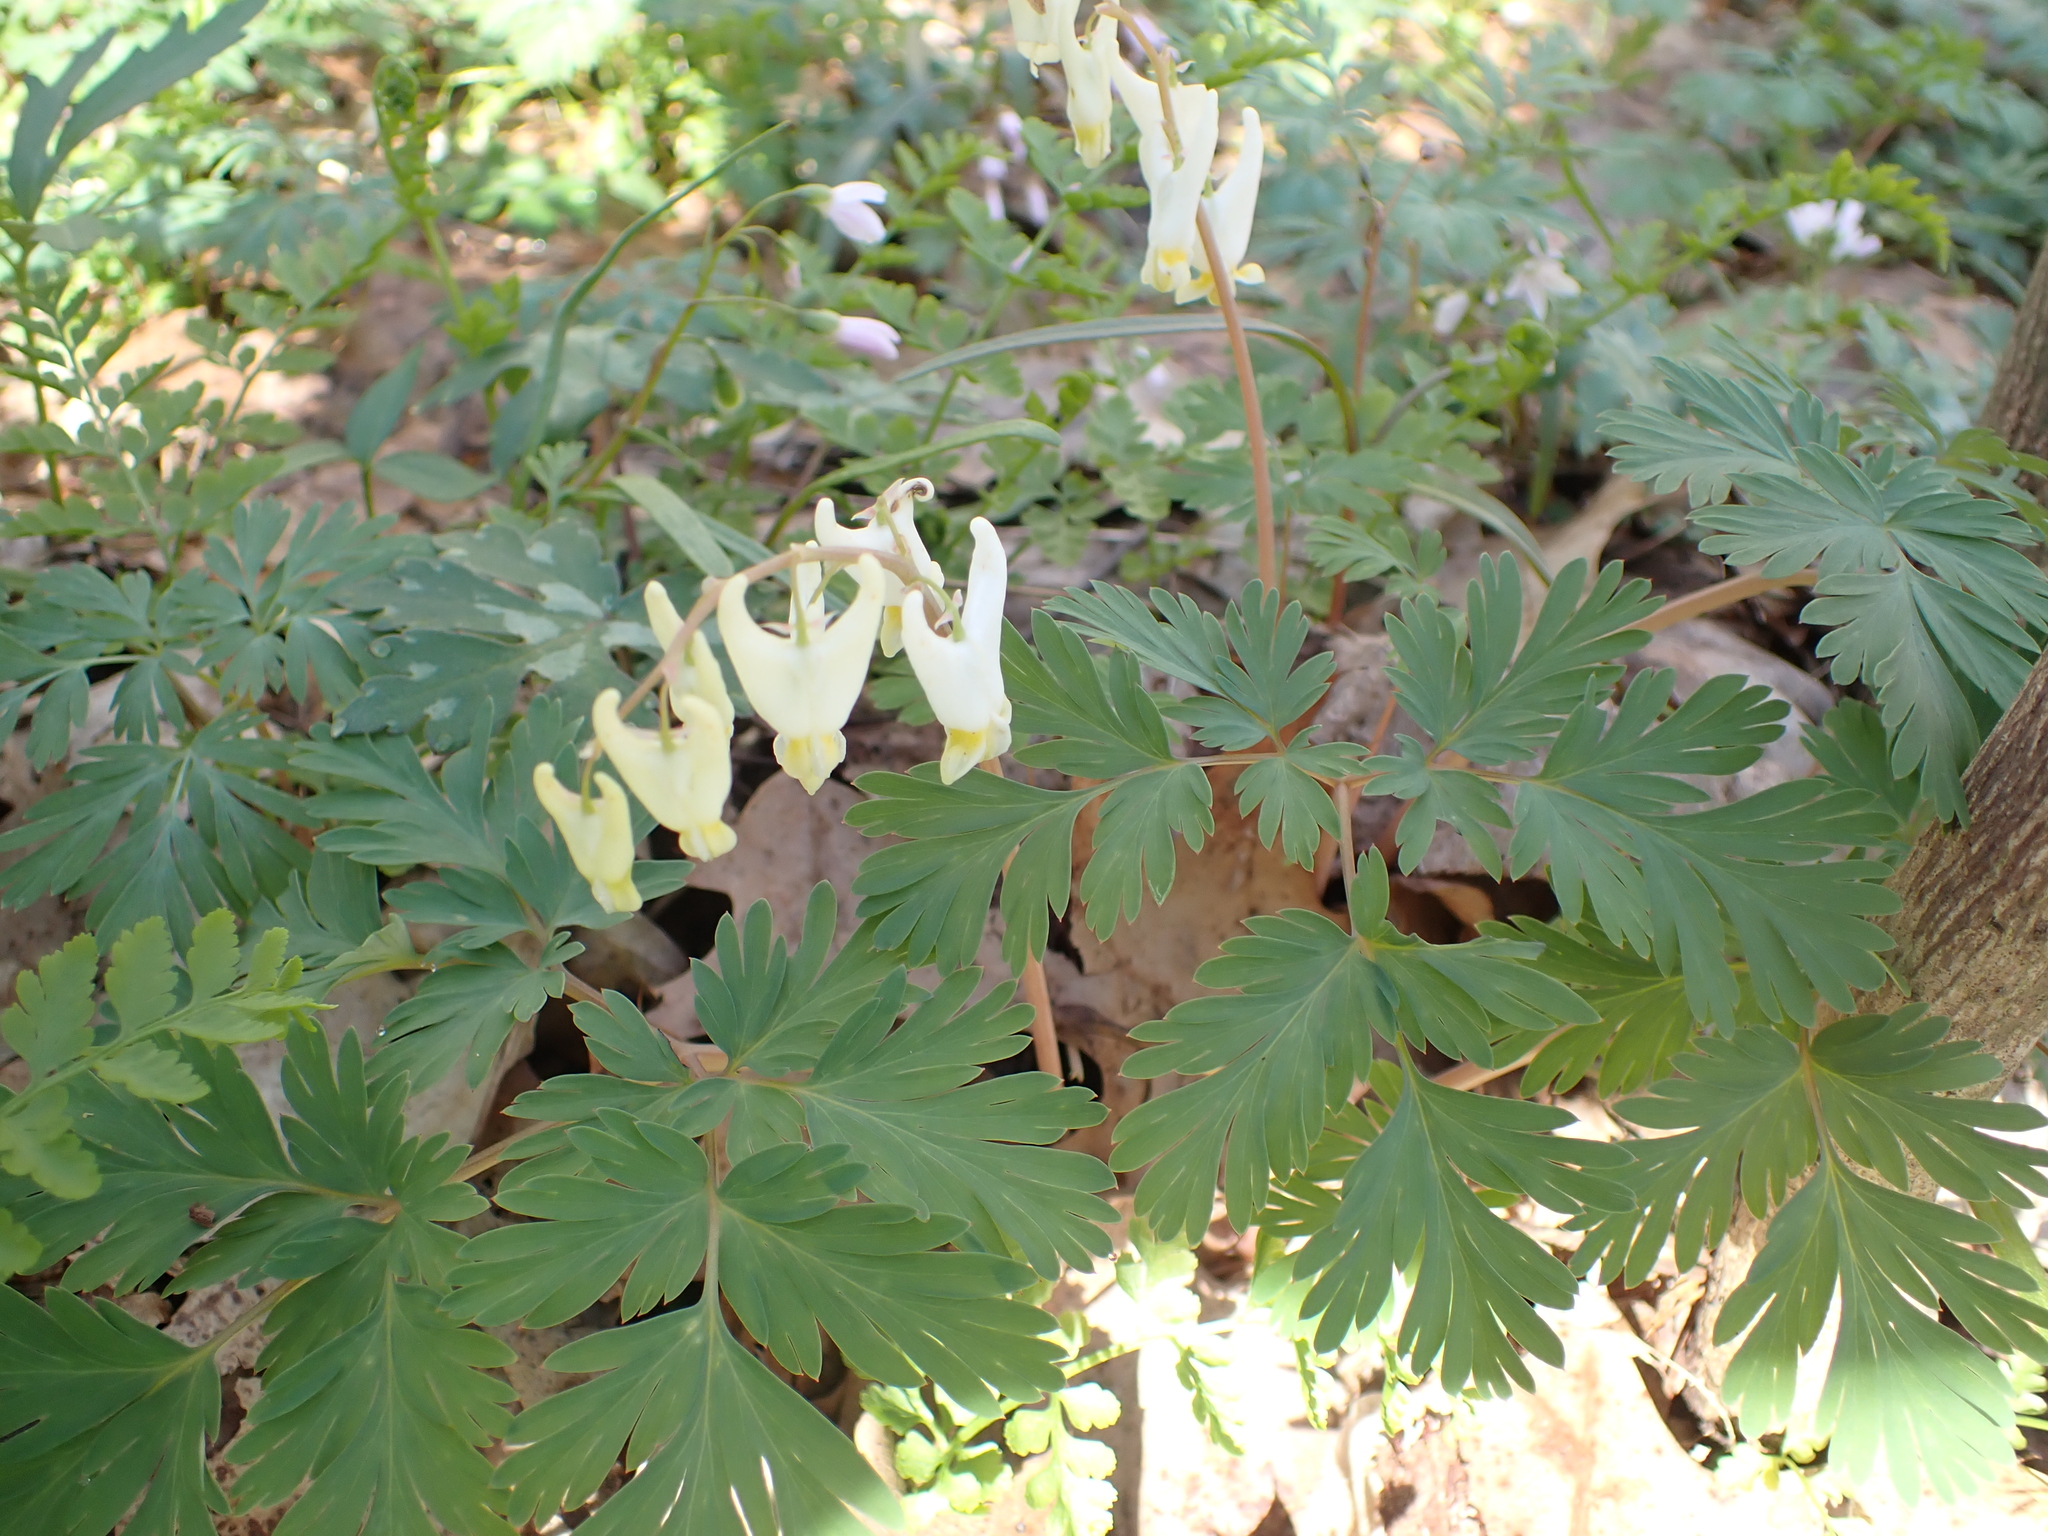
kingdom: Plantae
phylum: Tracheophyta
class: Magnoliopsida
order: Ranunculales
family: Papaveraceae
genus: Dicentra
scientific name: Dicentra cucullaria
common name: Dutchman's breeches
